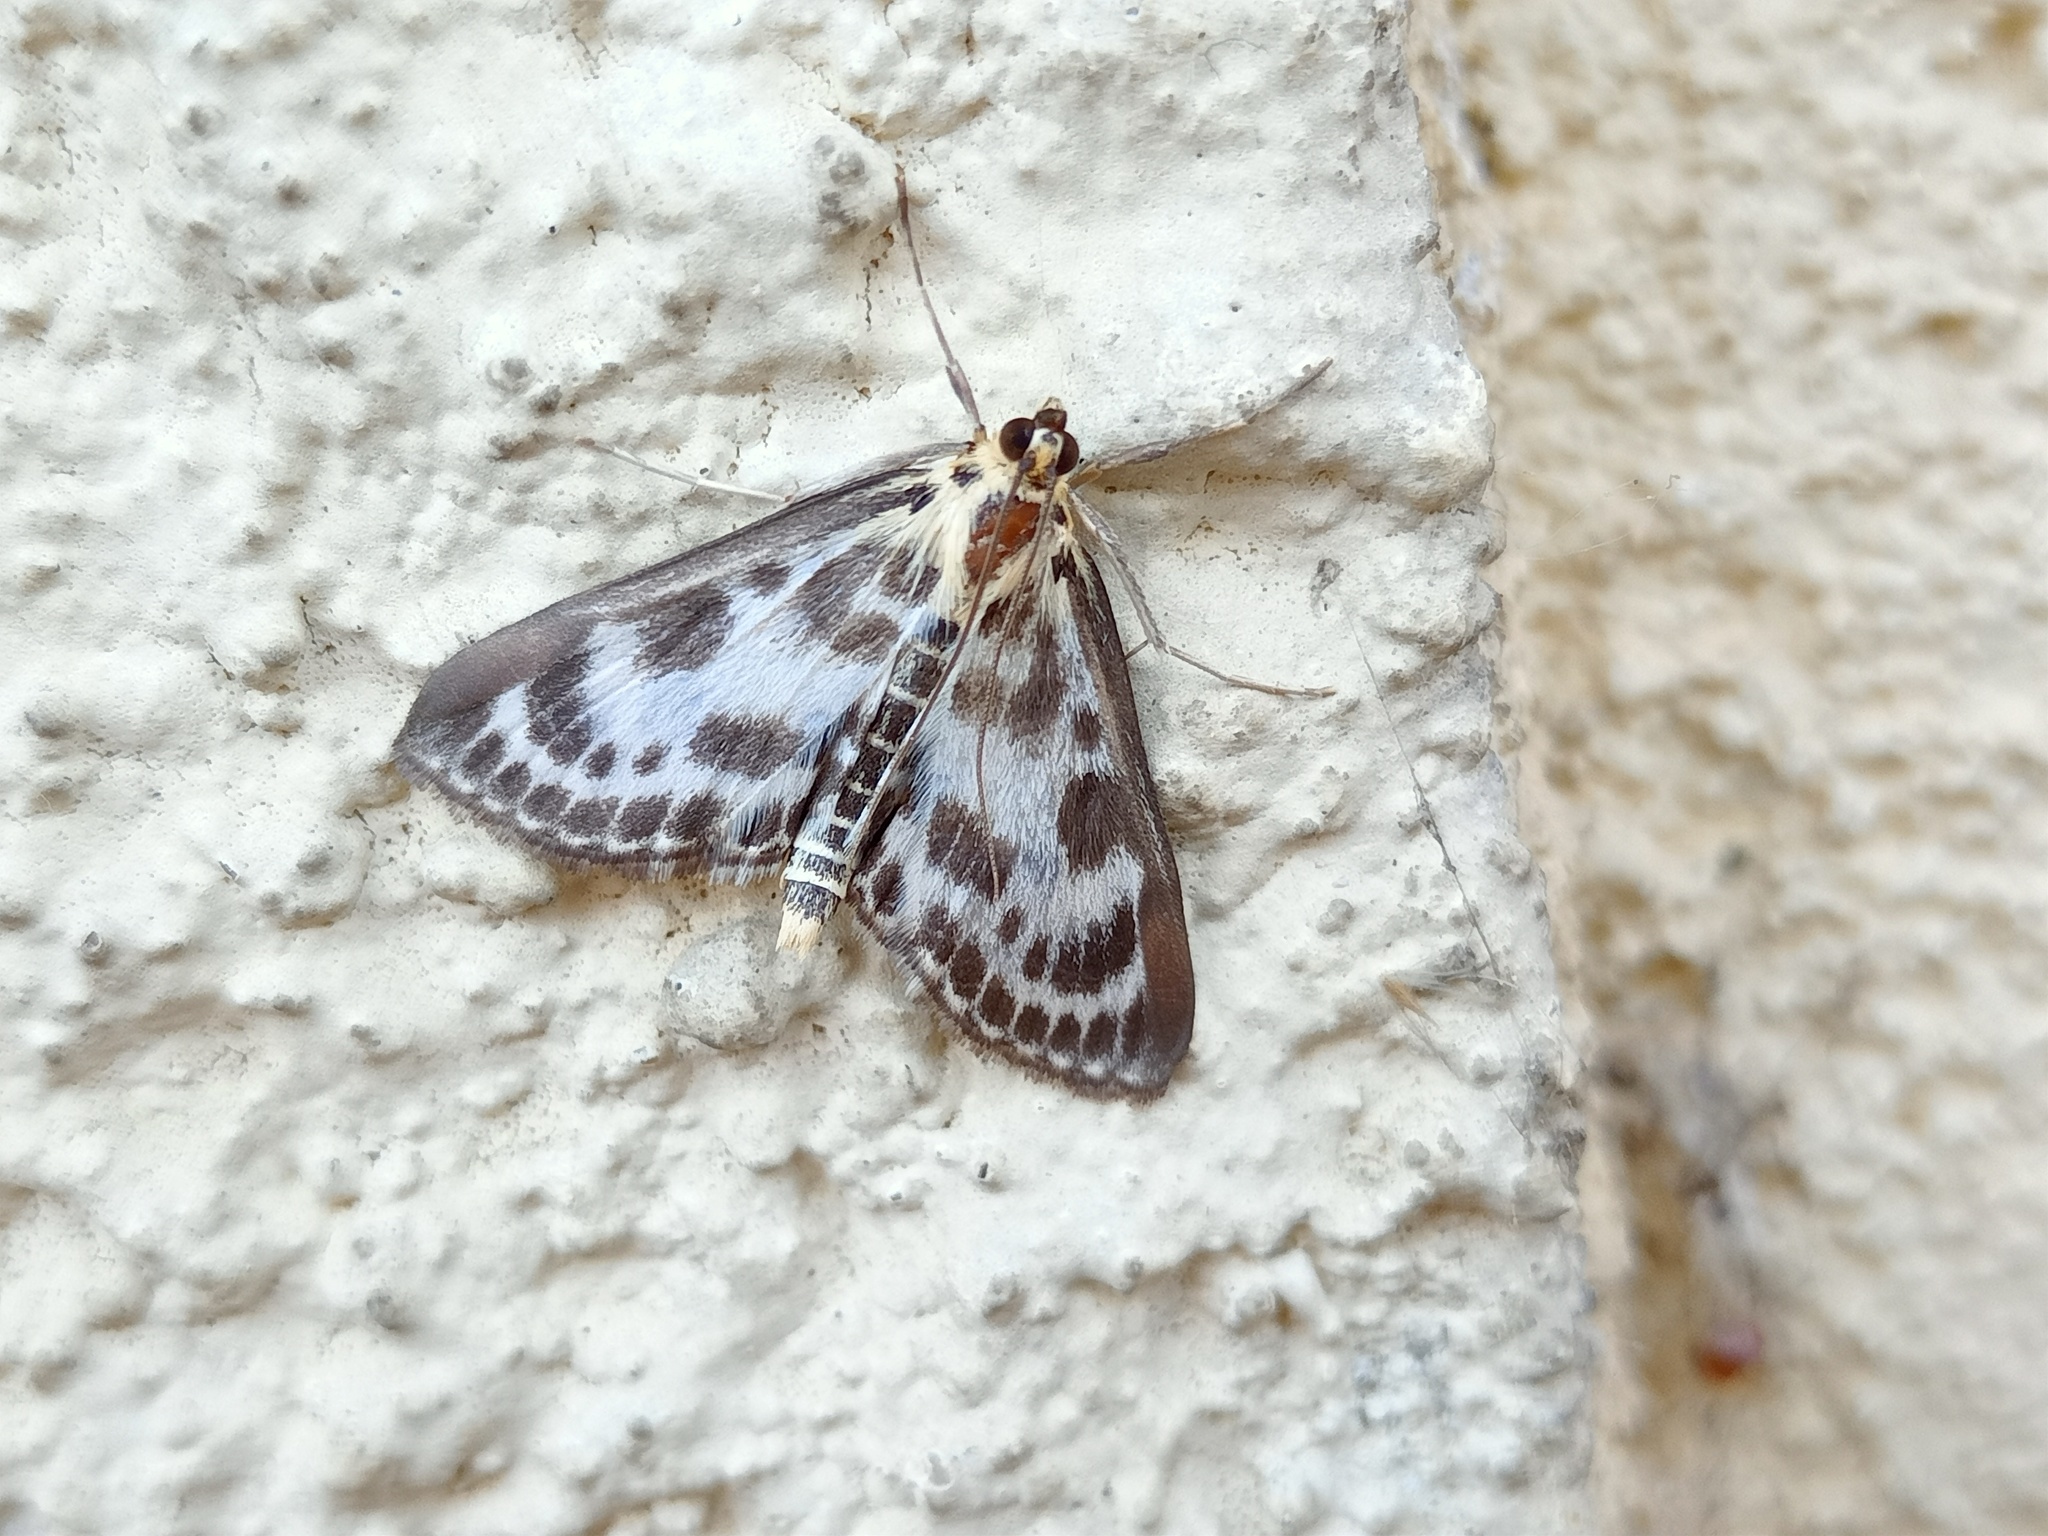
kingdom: Animalia
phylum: Arthropoda
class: Insecta
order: Lepidoptera
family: Crambidae
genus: Anania
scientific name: Anania hortulata
